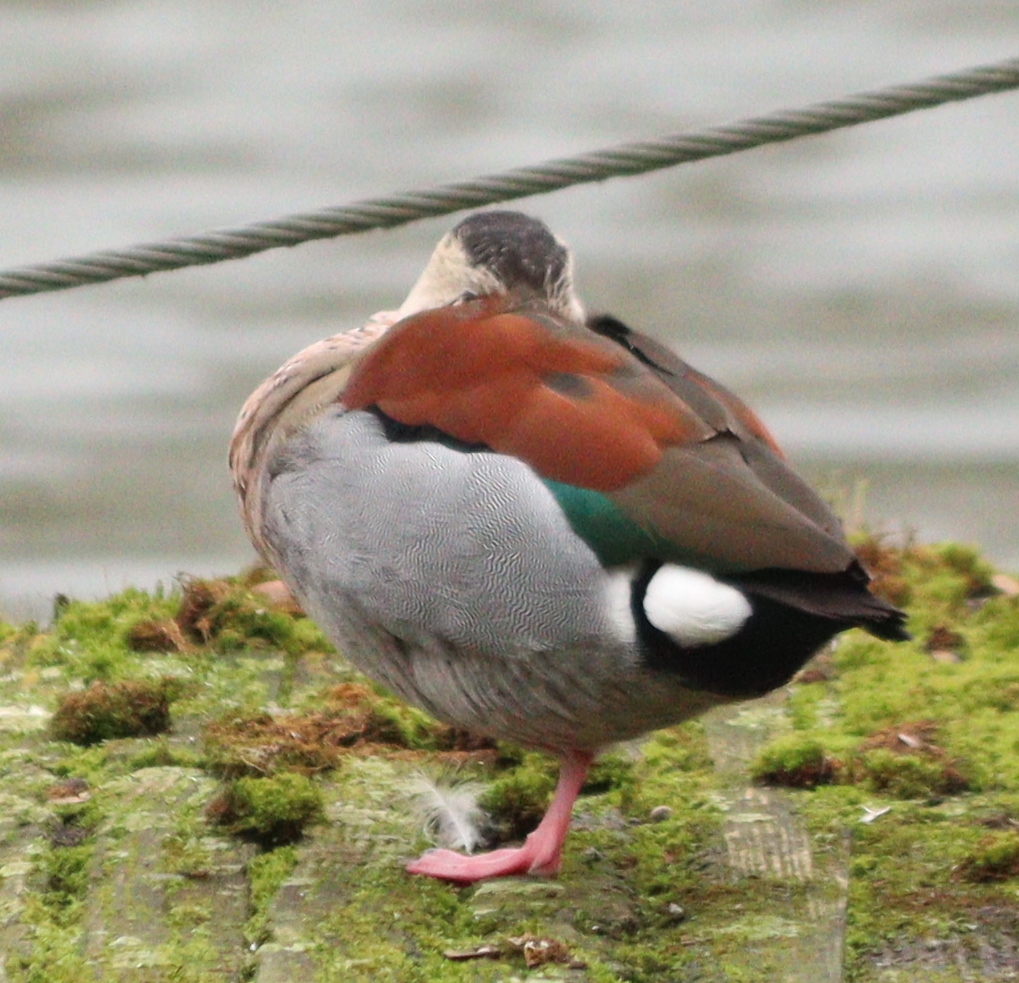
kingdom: Animalia
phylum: Chordata
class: Aves
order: Anseriformes
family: Anatidae
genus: Callonetta
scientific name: Callonetta leucophrys
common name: Ringed teal
